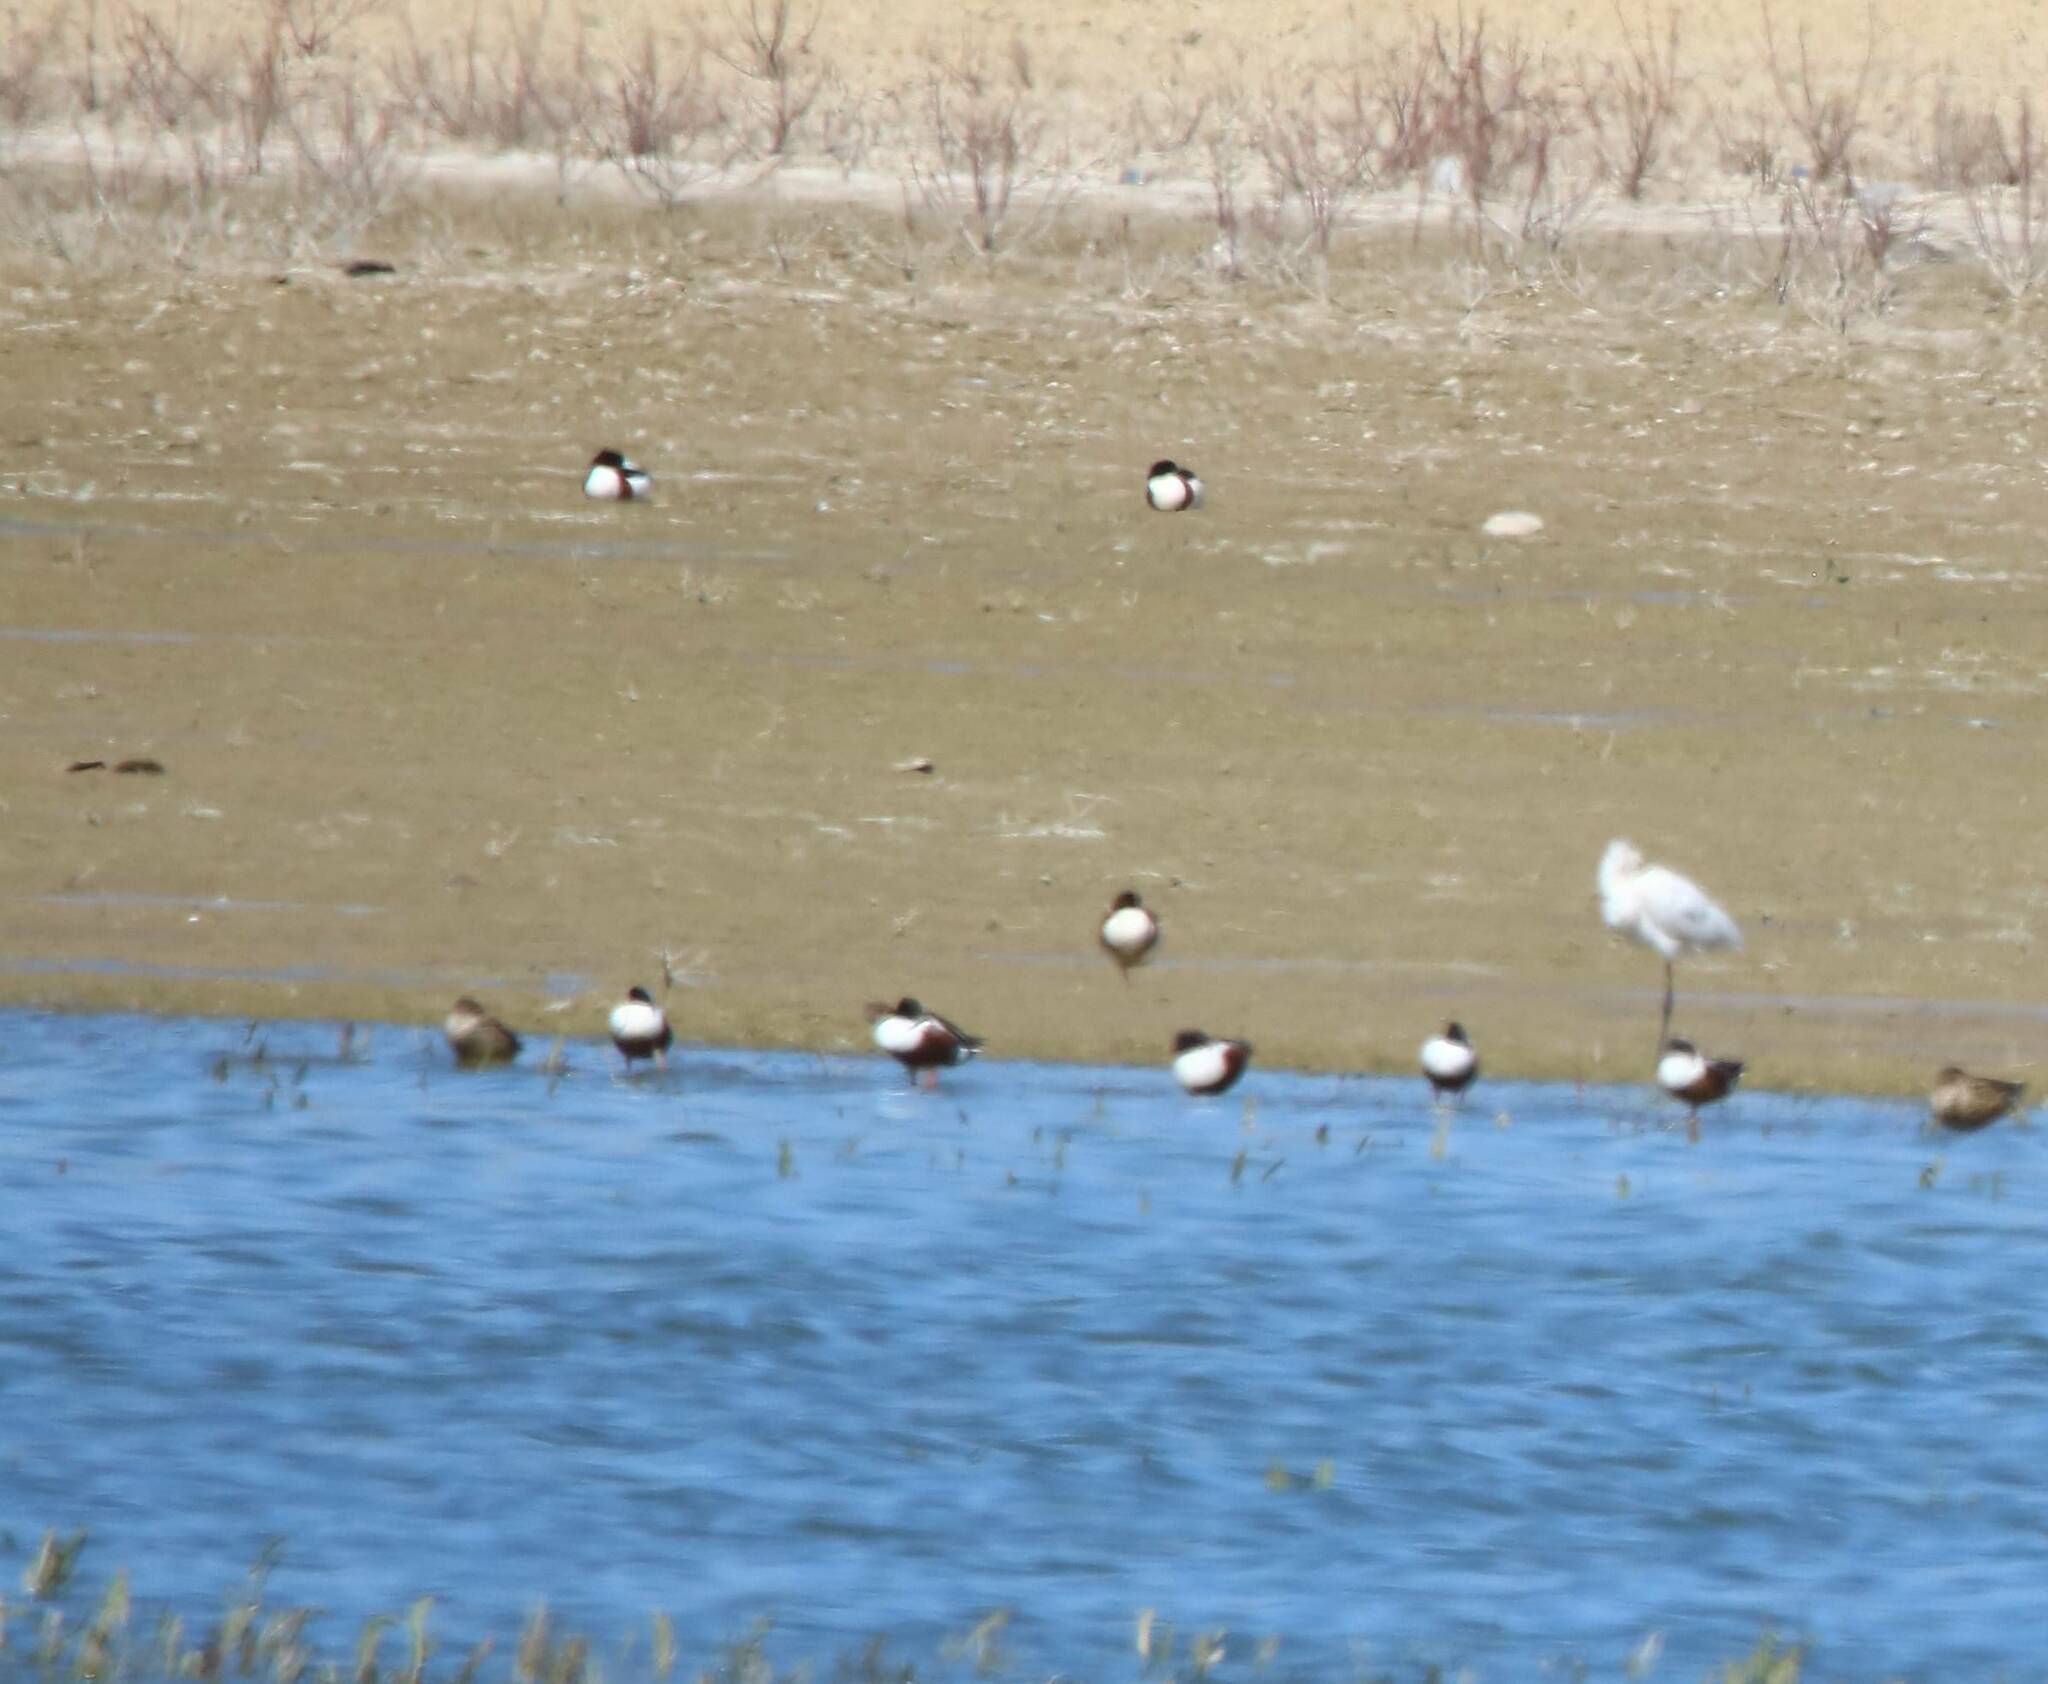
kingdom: Animalia
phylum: Chordata
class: Aves
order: Anseriformes
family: Anatidae
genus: Spatula
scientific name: Spatula clypeata
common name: Northern shoveler
